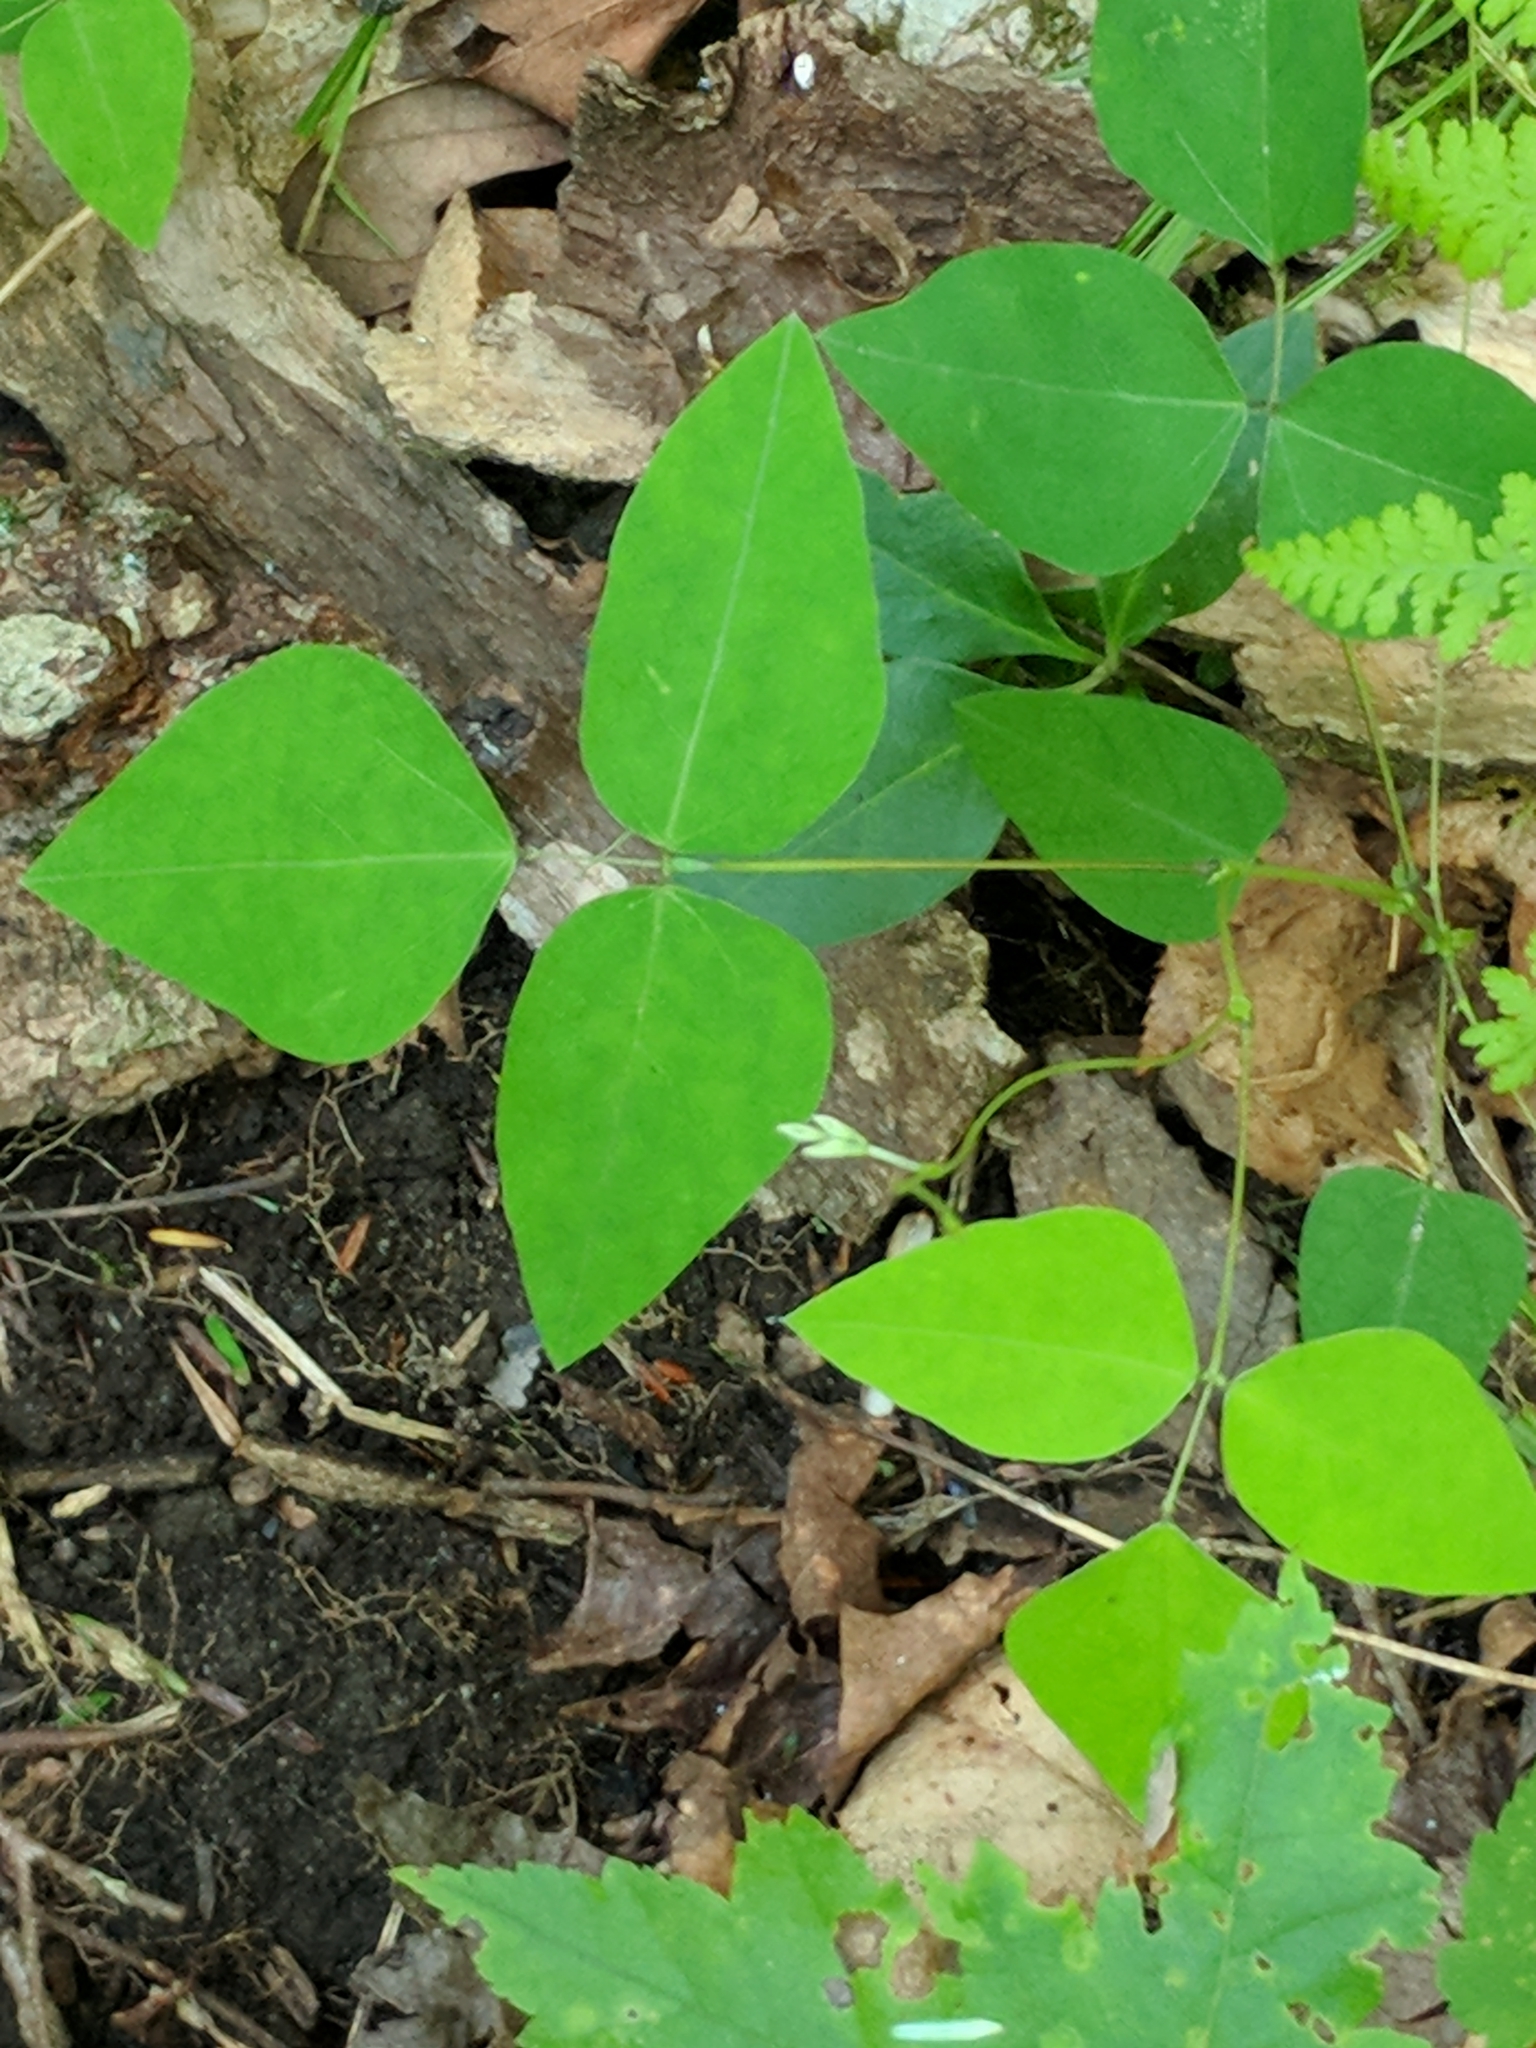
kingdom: Plantae
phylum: Tracheophyta
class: Magnoliopsida
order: Fabales
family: Fabaceae
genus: Amphicarpaea
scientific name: Amphicarpaea bracteata
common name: American hog peanut
